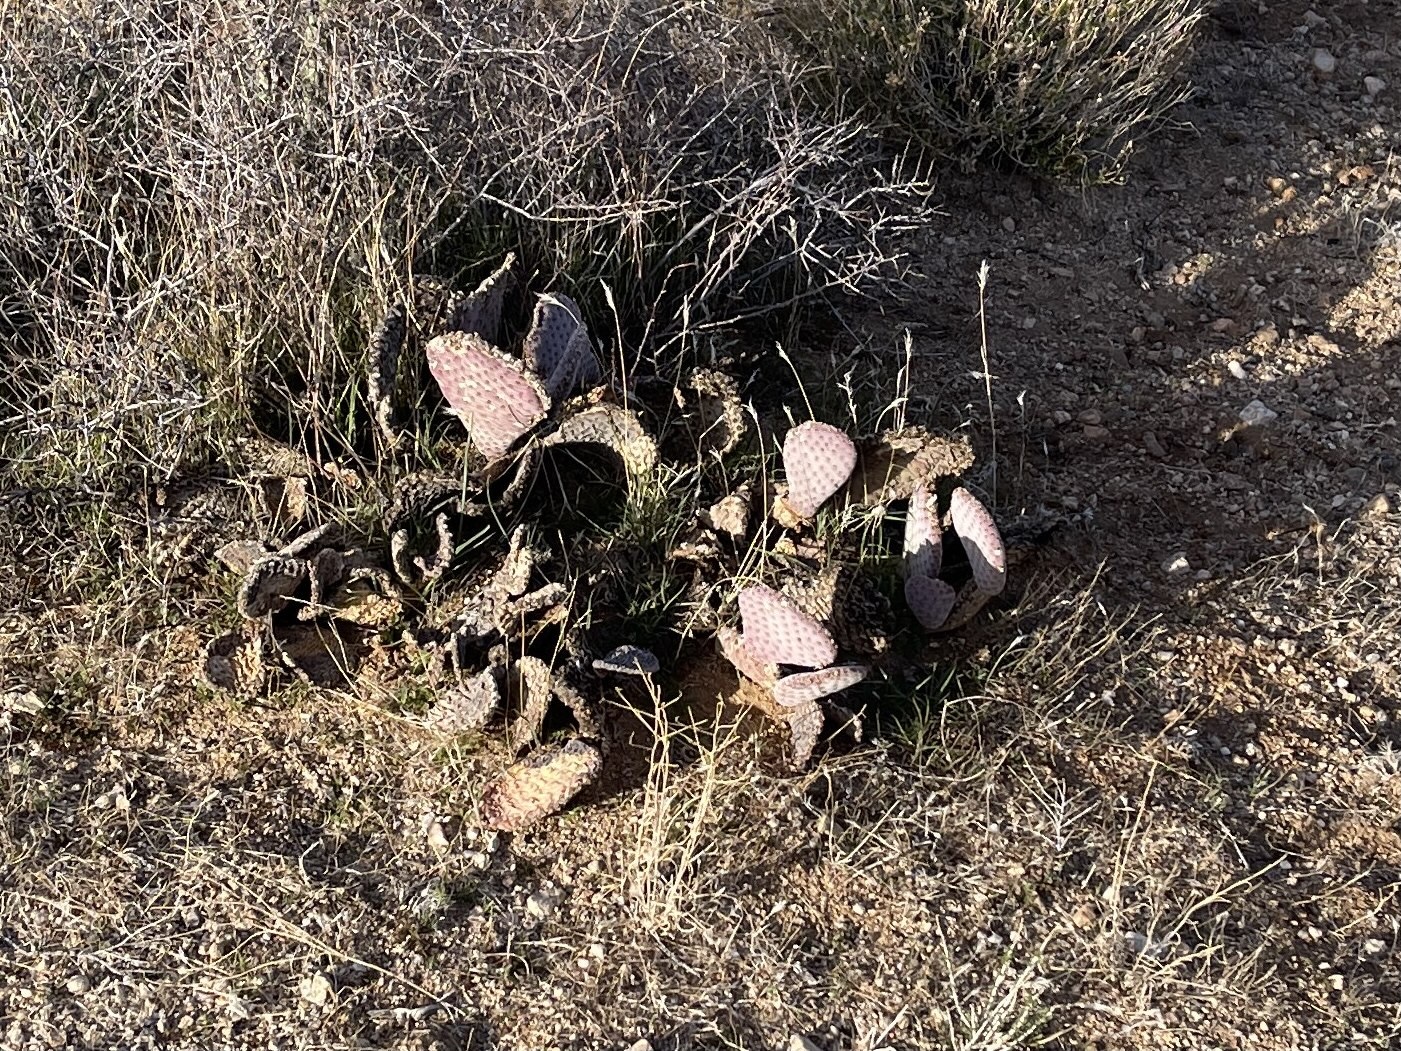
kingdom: Plantae
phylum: Tracheophyta
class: Magnoliopsida
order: Caryophyllales
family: Cactaceae
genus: Opuntia
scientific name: Opuntia basilaris
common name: Beavertail prickly-pear
